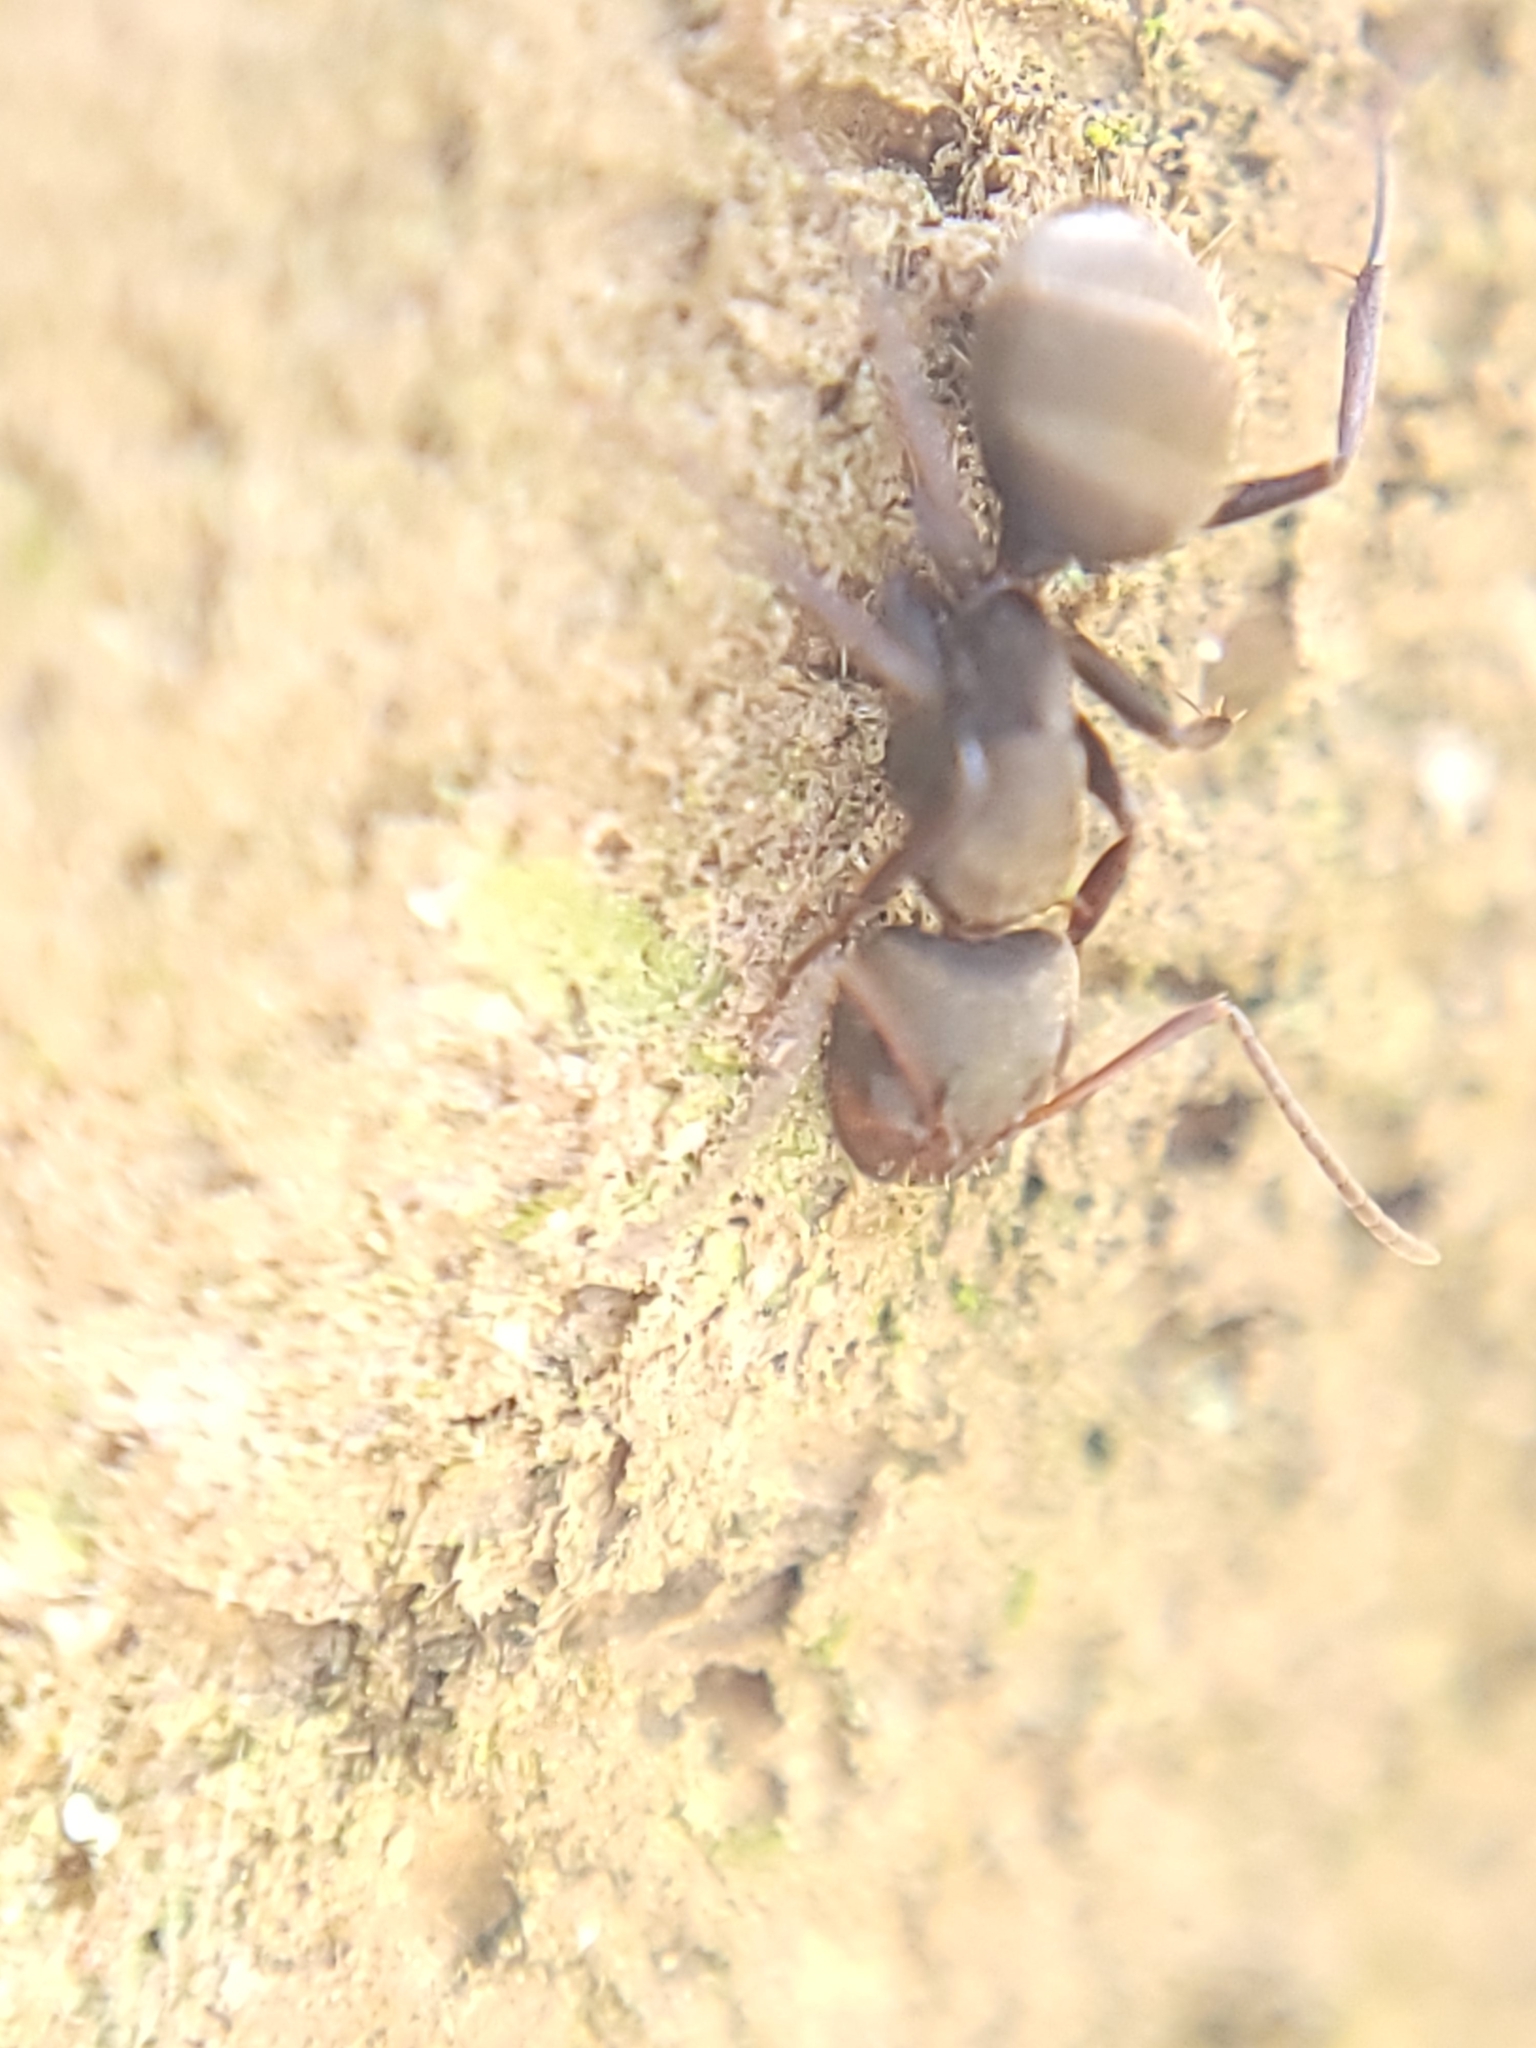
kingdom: Animalia
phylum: Arthropoda
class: Insecta
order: Hymenoptera
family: Formicidae
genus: Camponotus
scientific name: Camponotus novogranadensis
